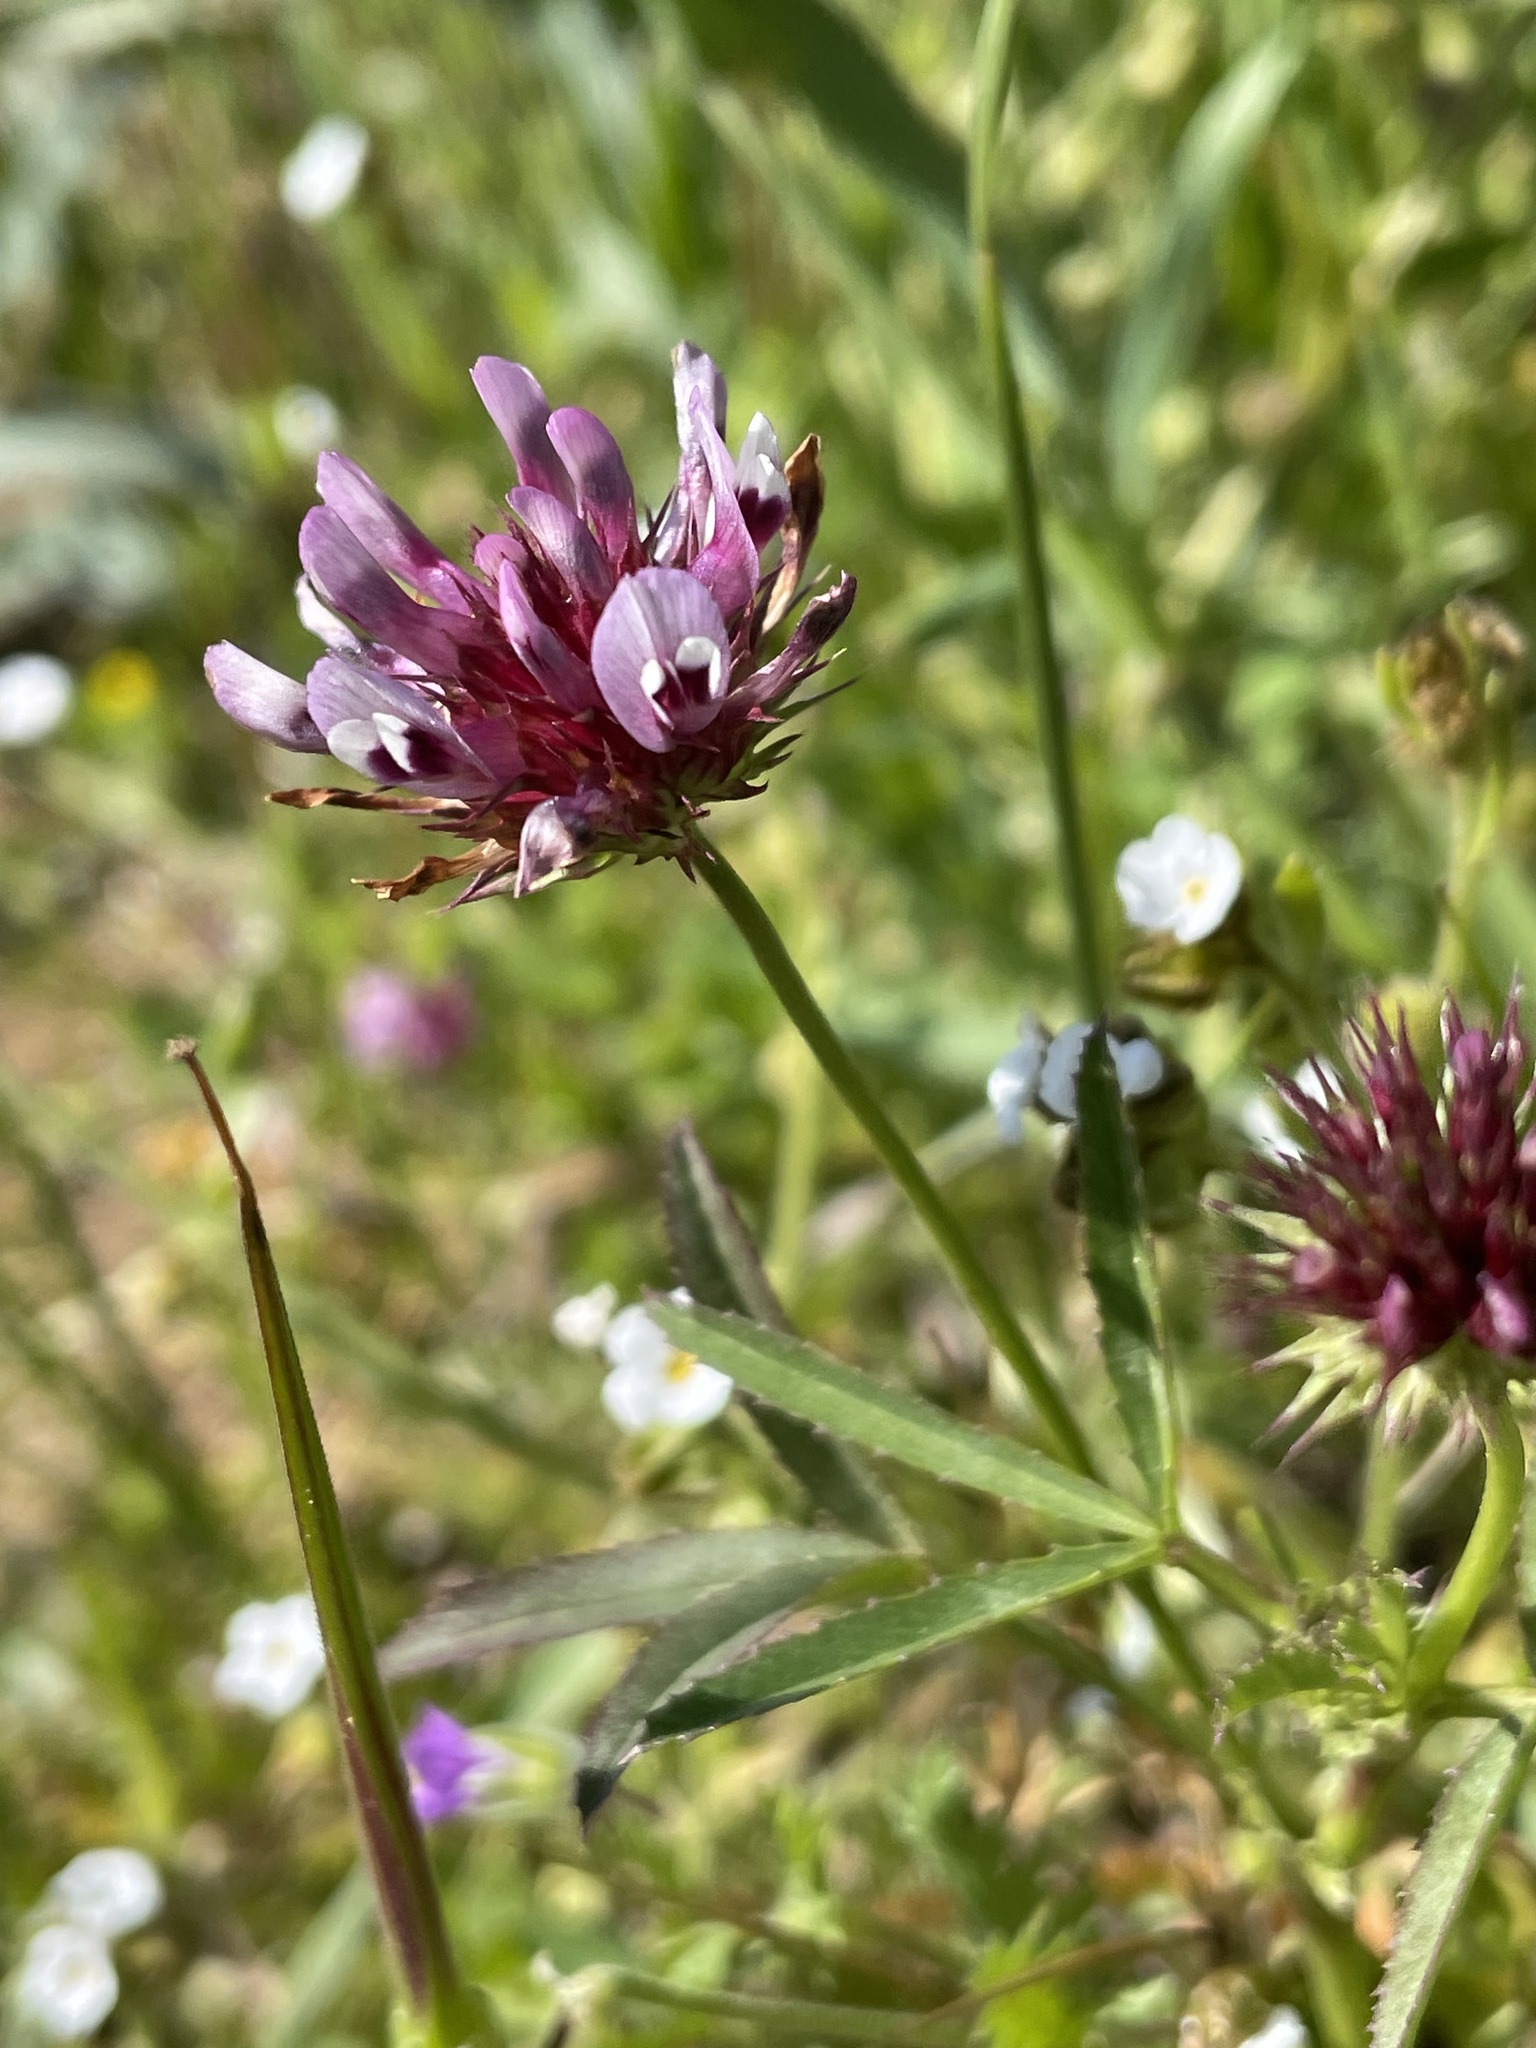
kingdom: Plantae
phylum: Tracheophyta
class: Magnoliopsida
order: Fabales
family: Fabaceae
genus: Trifolium
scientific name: Trifolium willdenovii
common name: Tomcat clover
